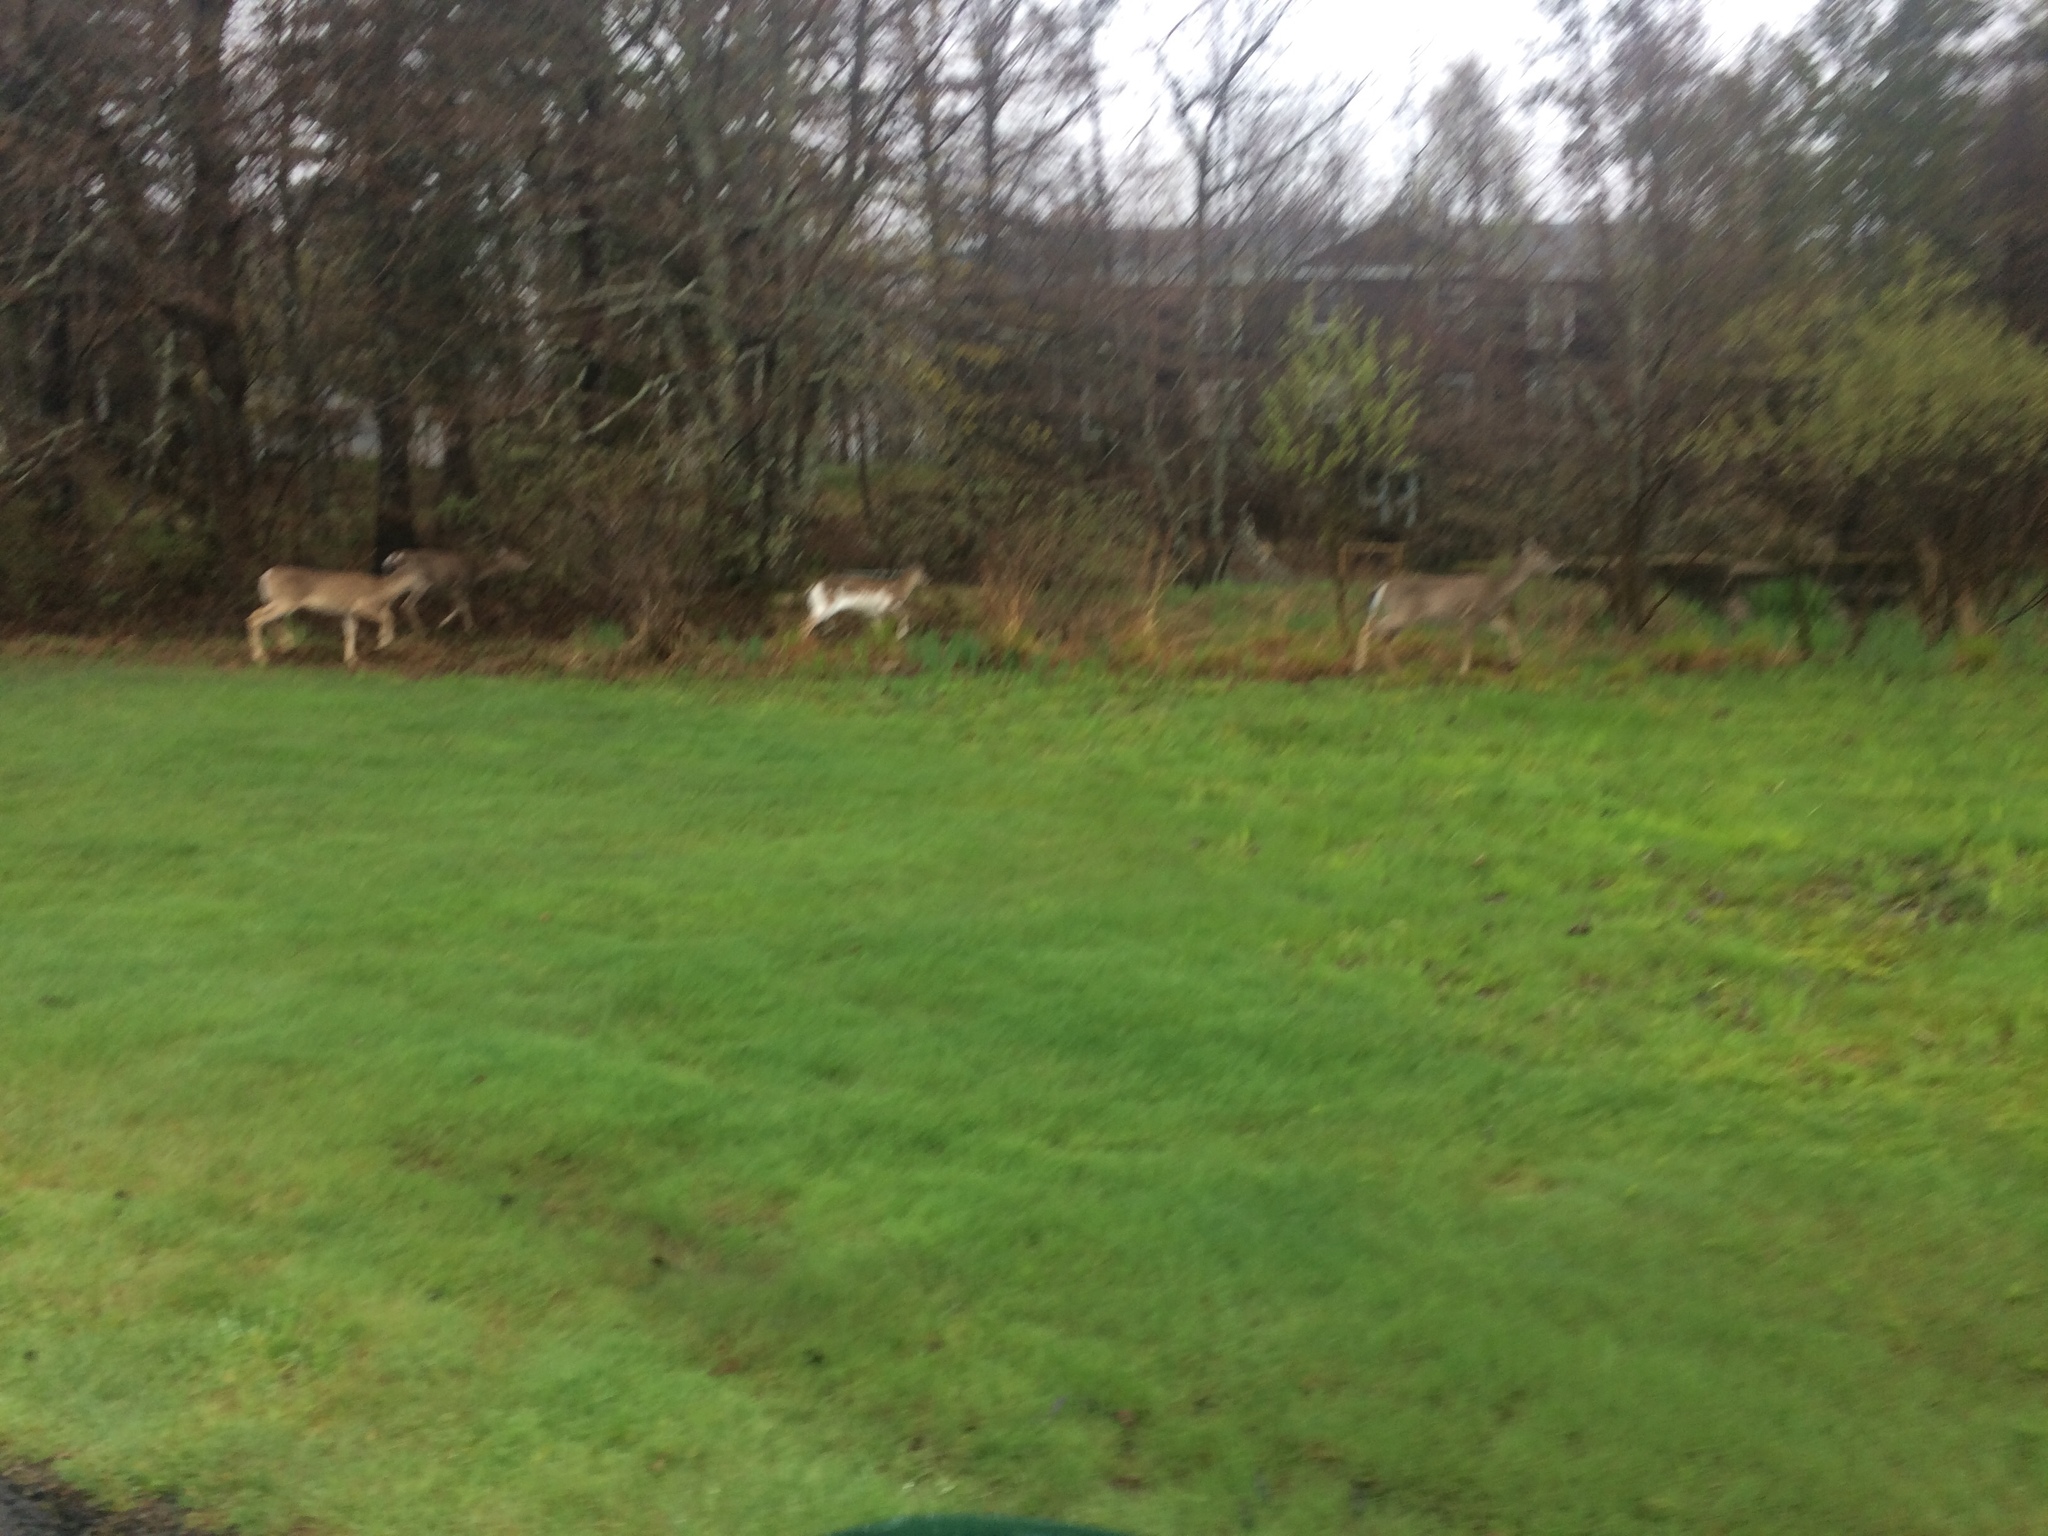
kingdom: Animalia
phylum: Chordata
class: Mammalia
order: Artiodactyla
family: Cervidae
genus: Odocoileus
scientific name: Odocoileus virginianus
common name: White-tailed deer
